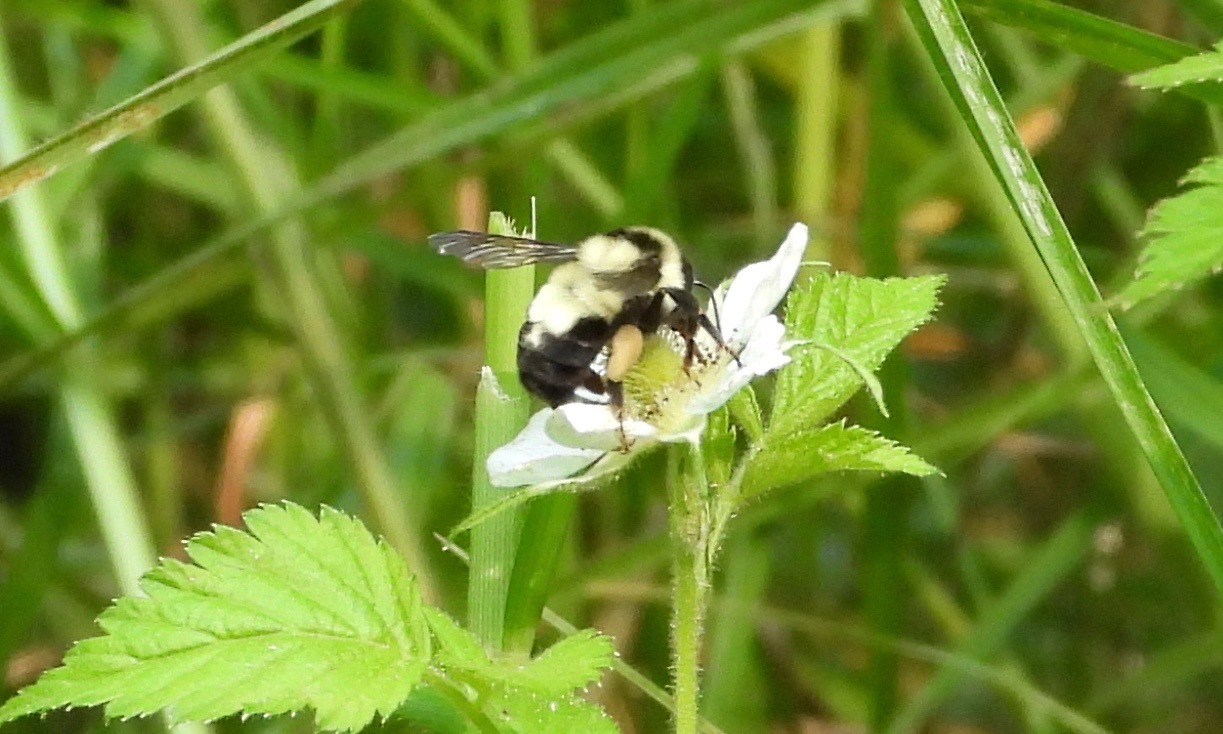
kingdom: Animalia
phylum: Arthropoda
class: Insecta
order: Hymenoptera
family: Apidae
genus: Bombus
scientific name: Bombus wilmattae
